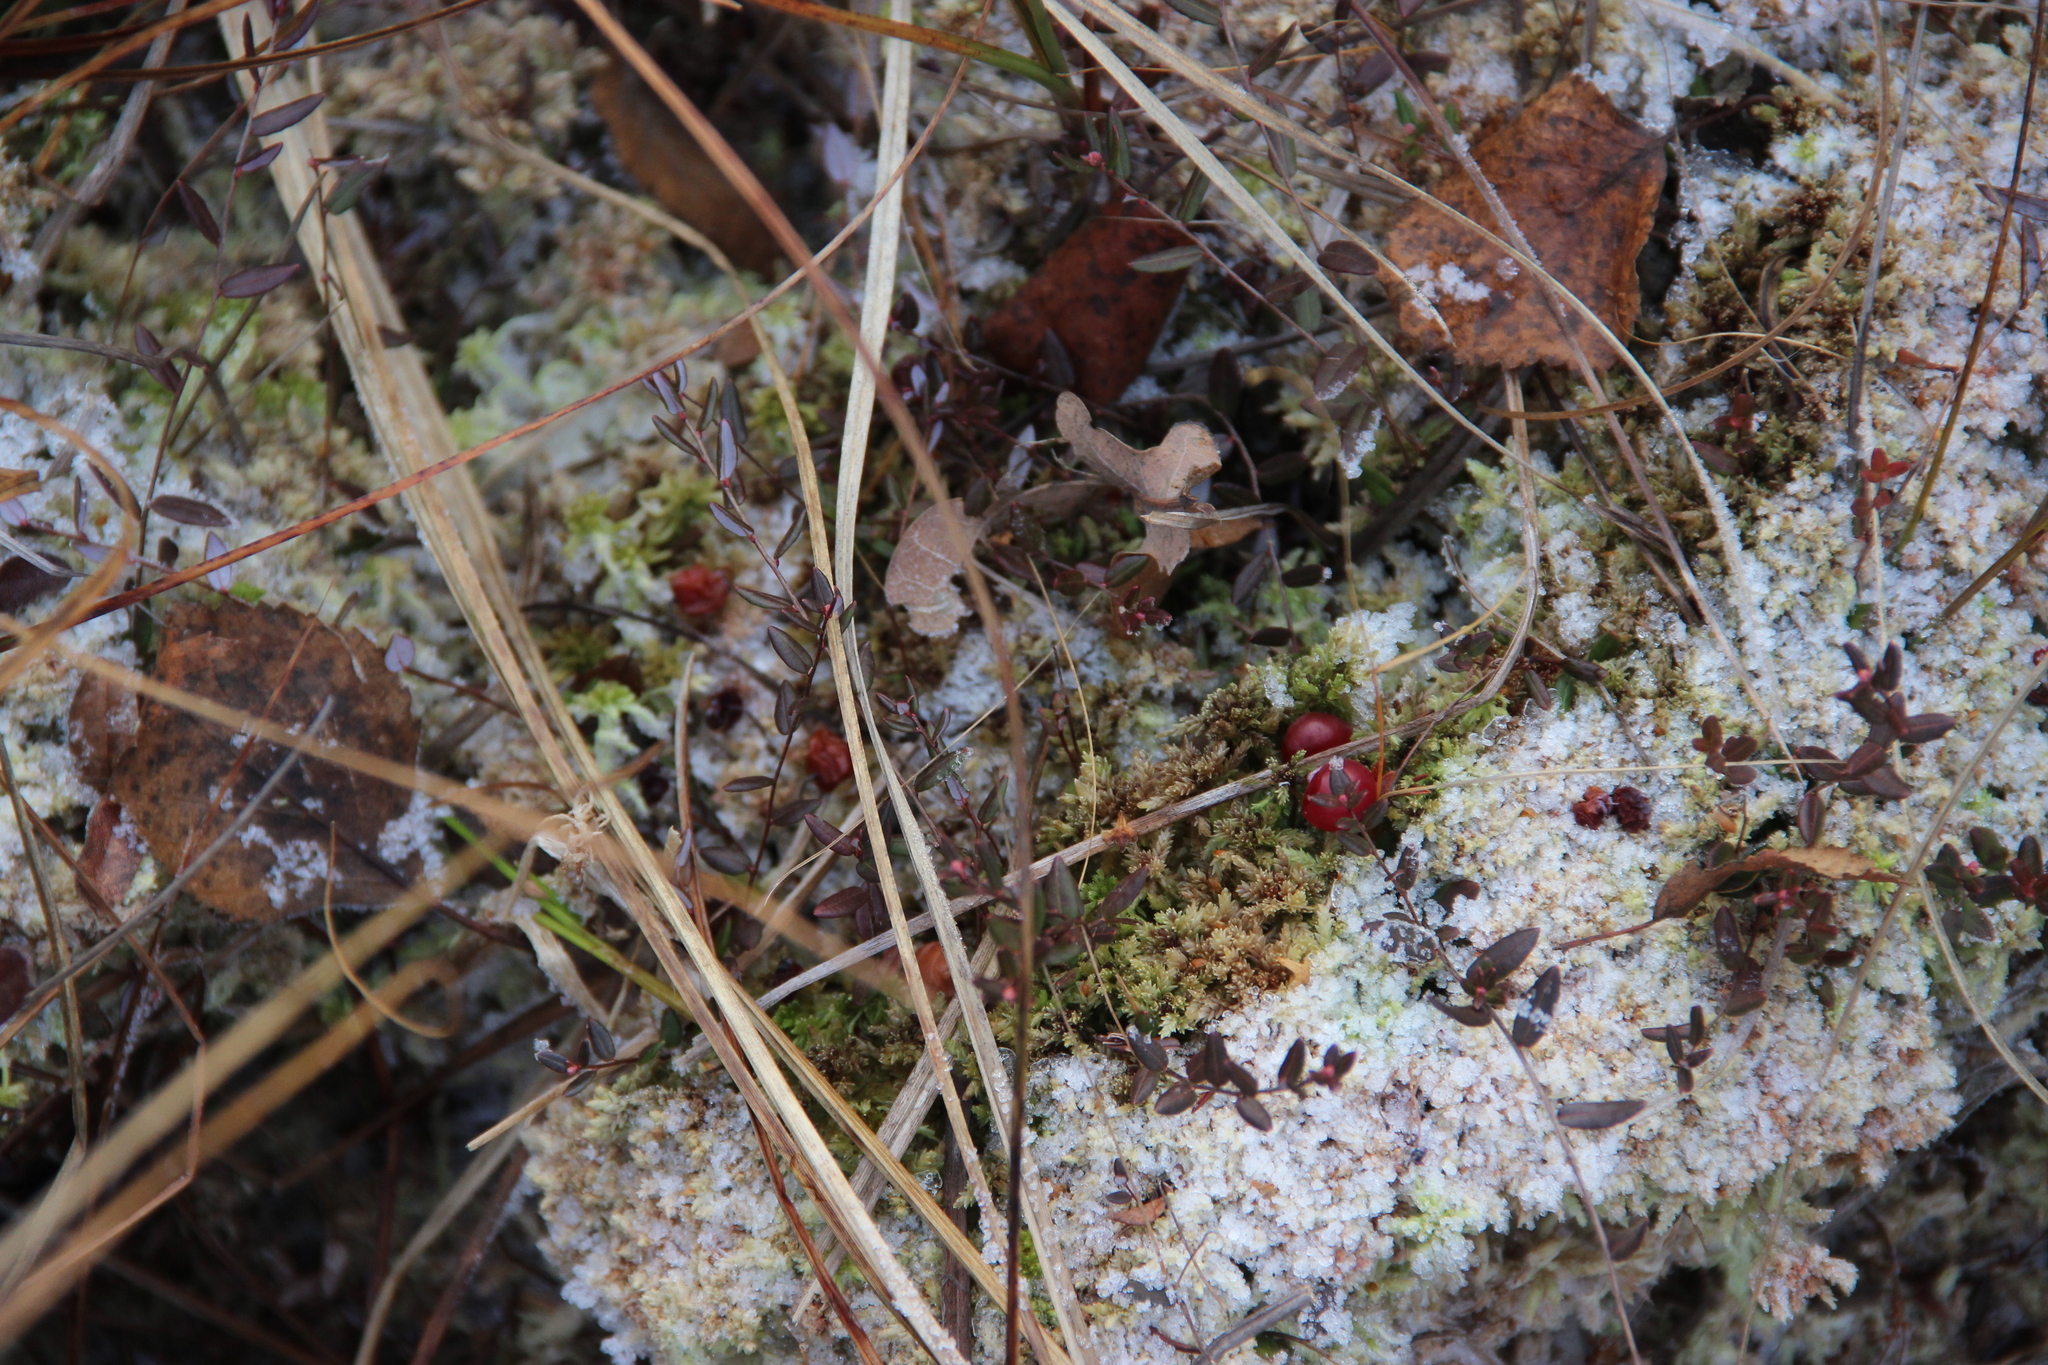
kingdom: Plantae
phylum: Tracheophyta
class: Magnoliopsida
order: Ericales
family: Ericaceae
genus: Vaccinium
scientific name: Vaccinium oxycoccos
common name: Cranberry
